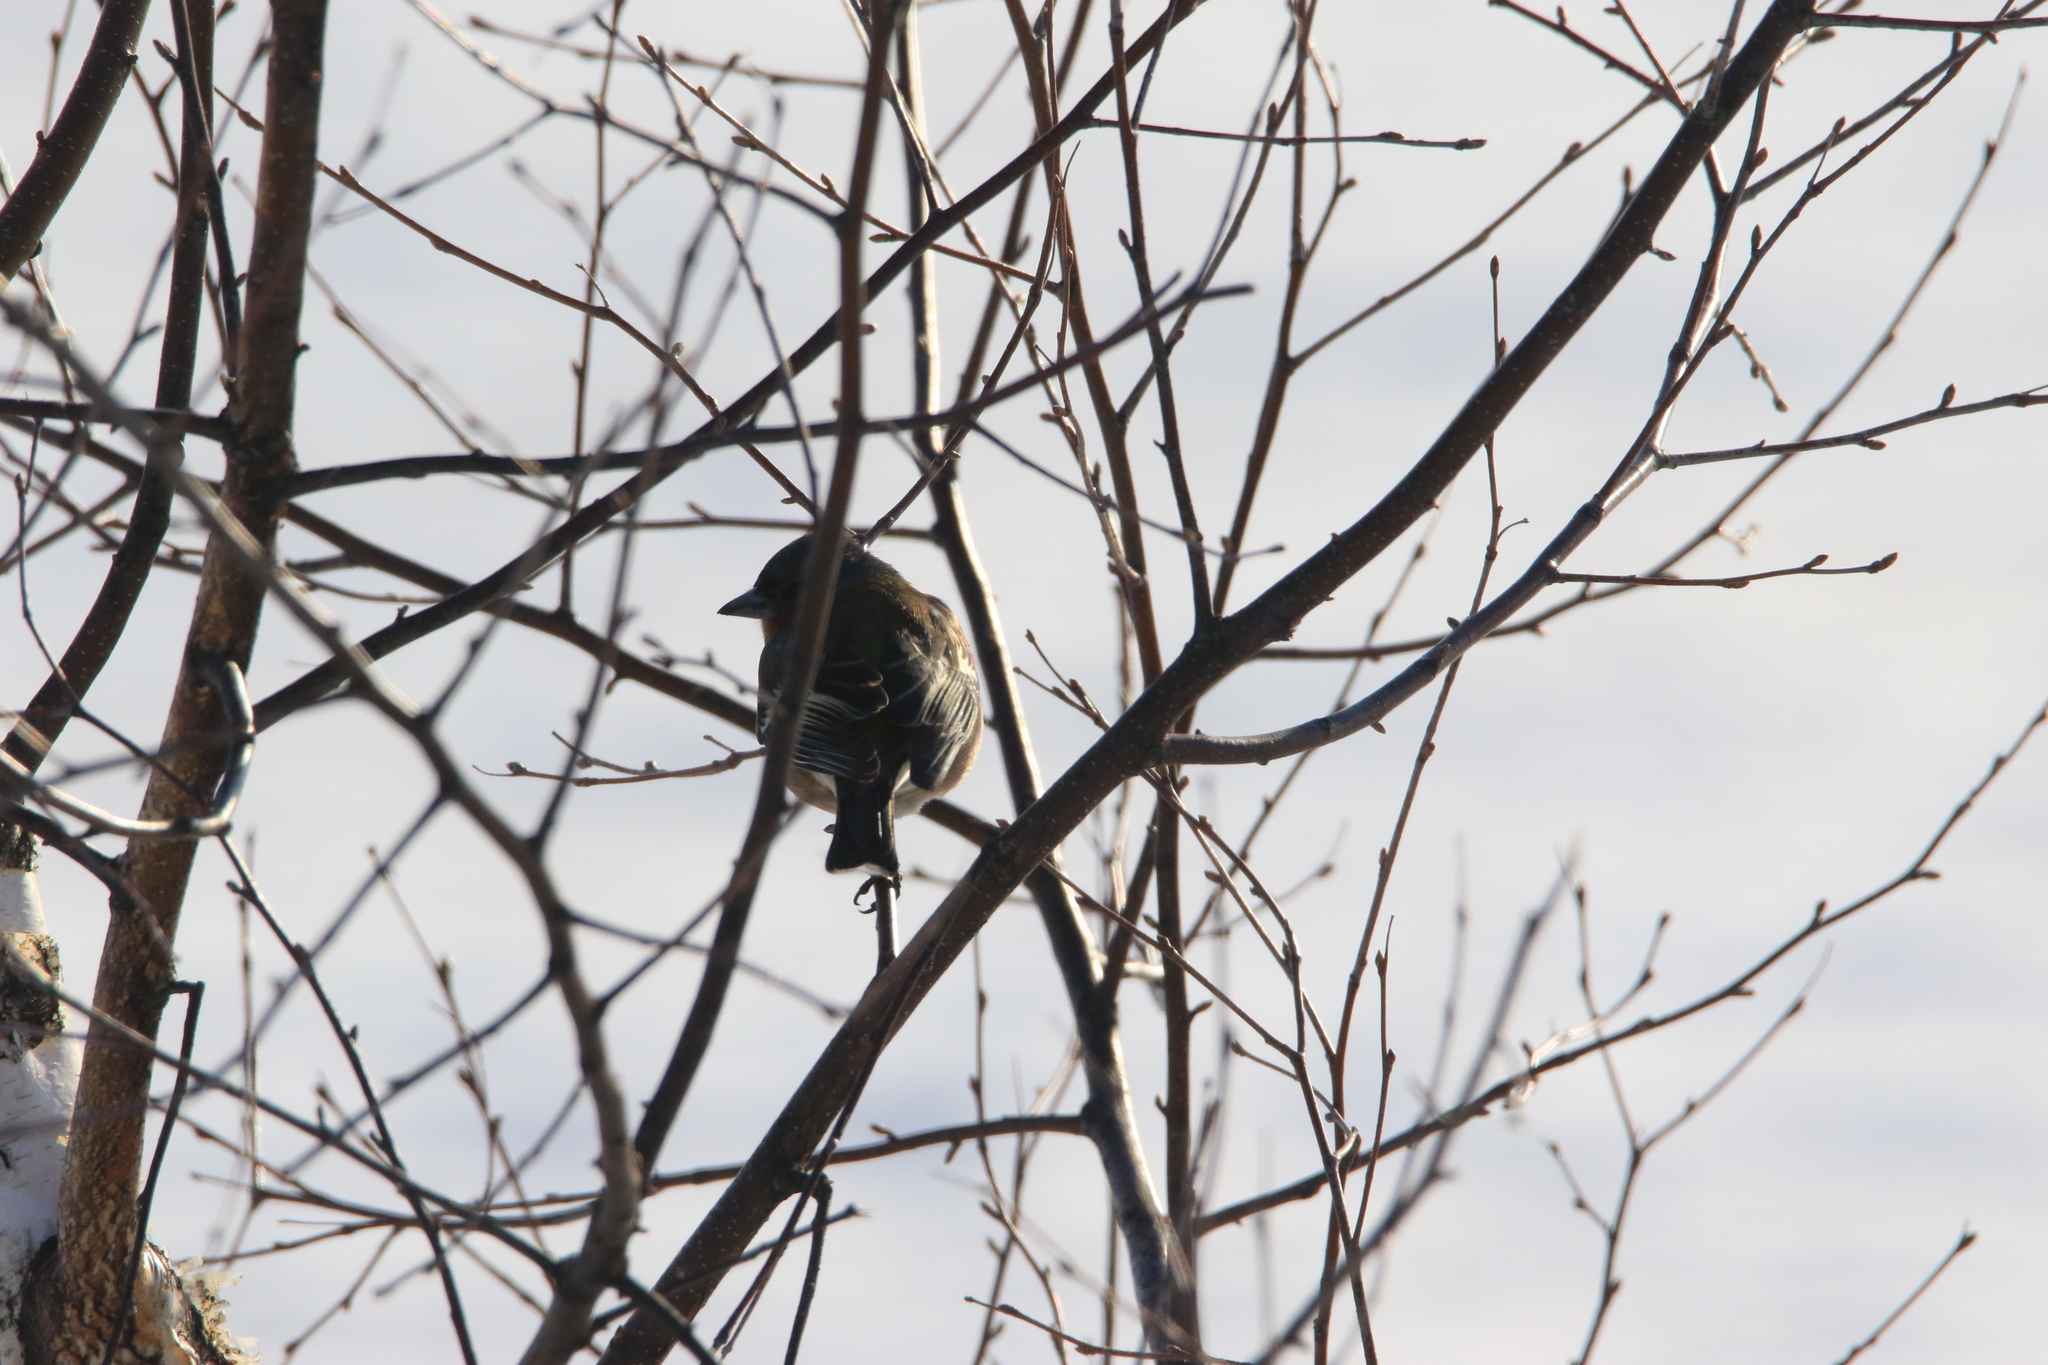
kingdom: Animalia
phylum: Chordata
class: Aves
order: Passeriformes
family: Fringillidae
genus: Fringilla
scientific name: Fringilla coelebs
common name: Common chaffinch
